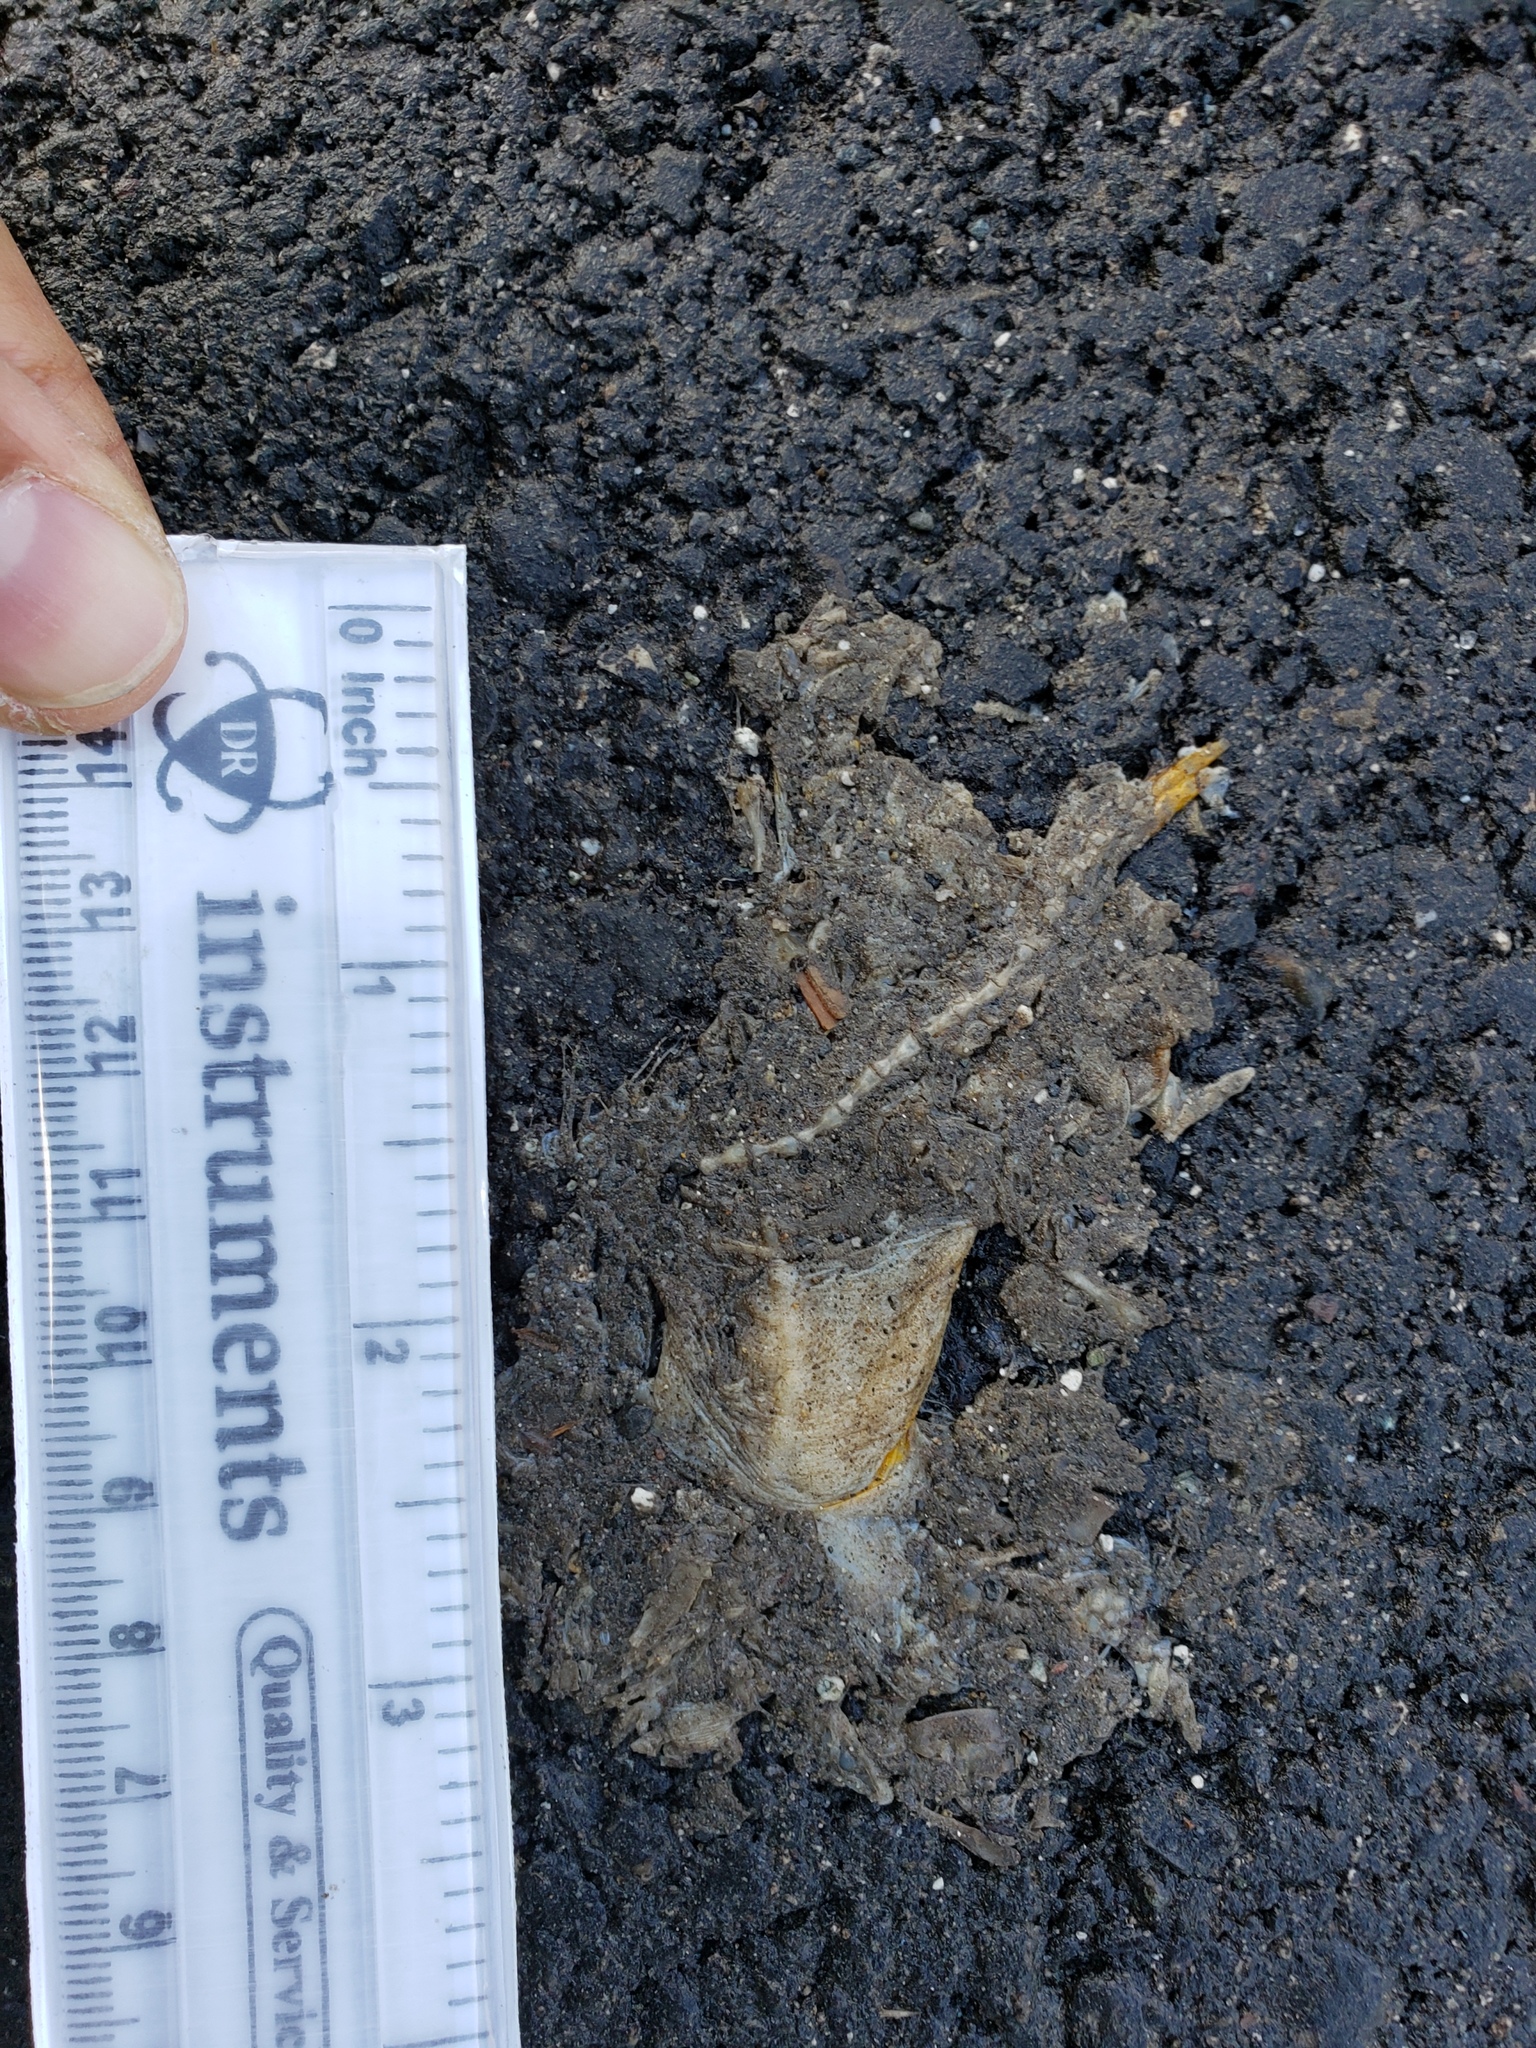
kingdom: Animalia
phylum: Chordata
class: Amphibia
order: Caudata
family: Salamandridae
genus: Taricha
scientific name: Taricha
